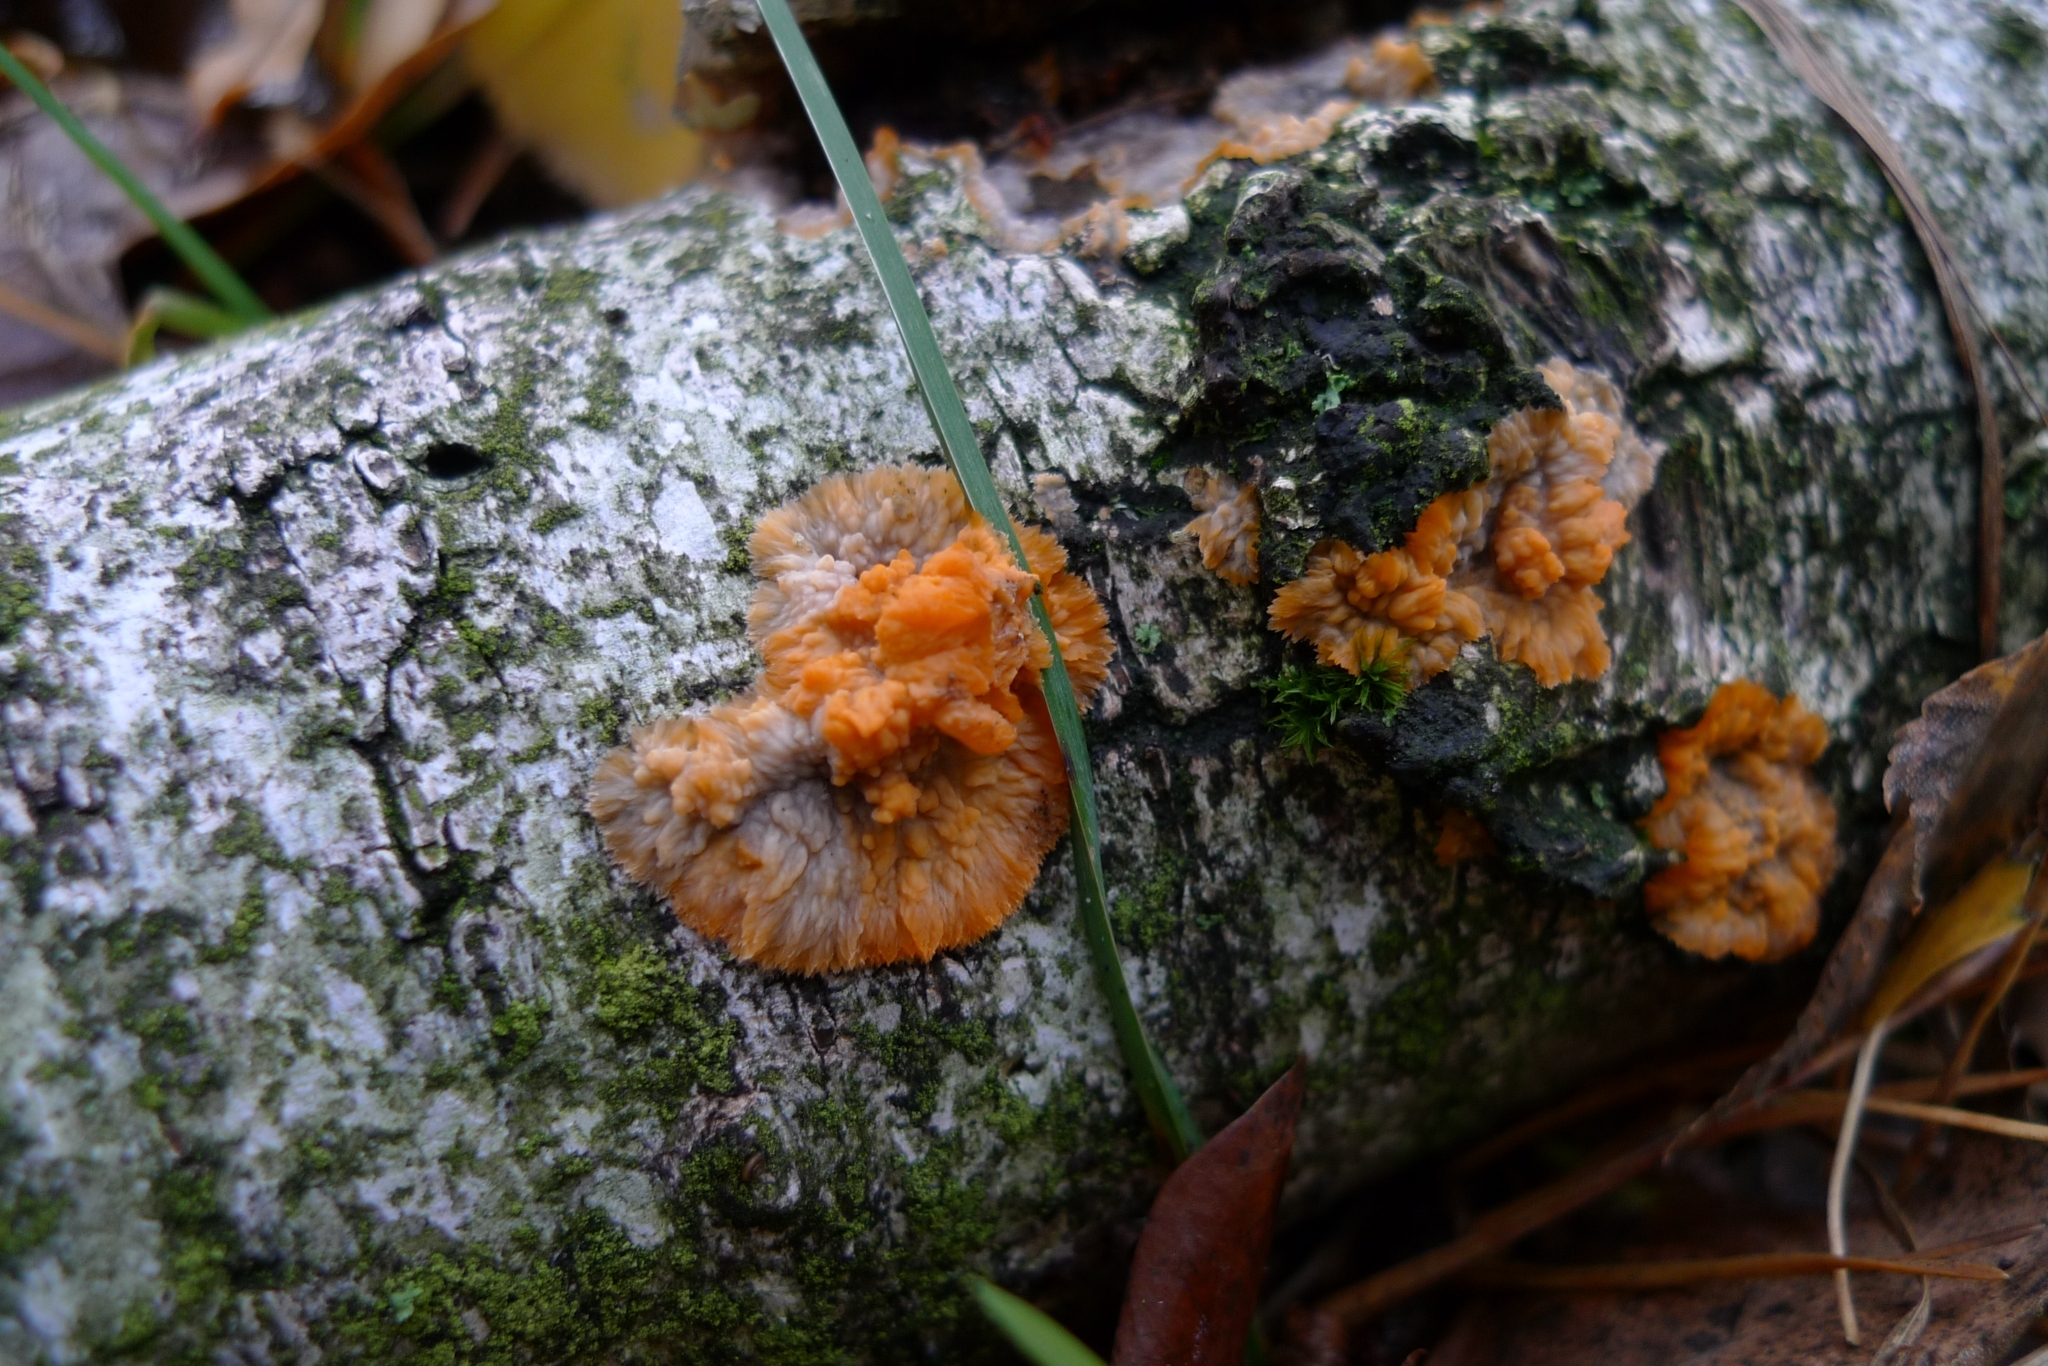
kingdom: Fungi
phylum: Basidiomycota
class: Agaricomycetes
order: Polyporales
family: Meruliaceae
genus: Phlebia
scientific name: Phlebia radiata
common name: Wrinkled crust
